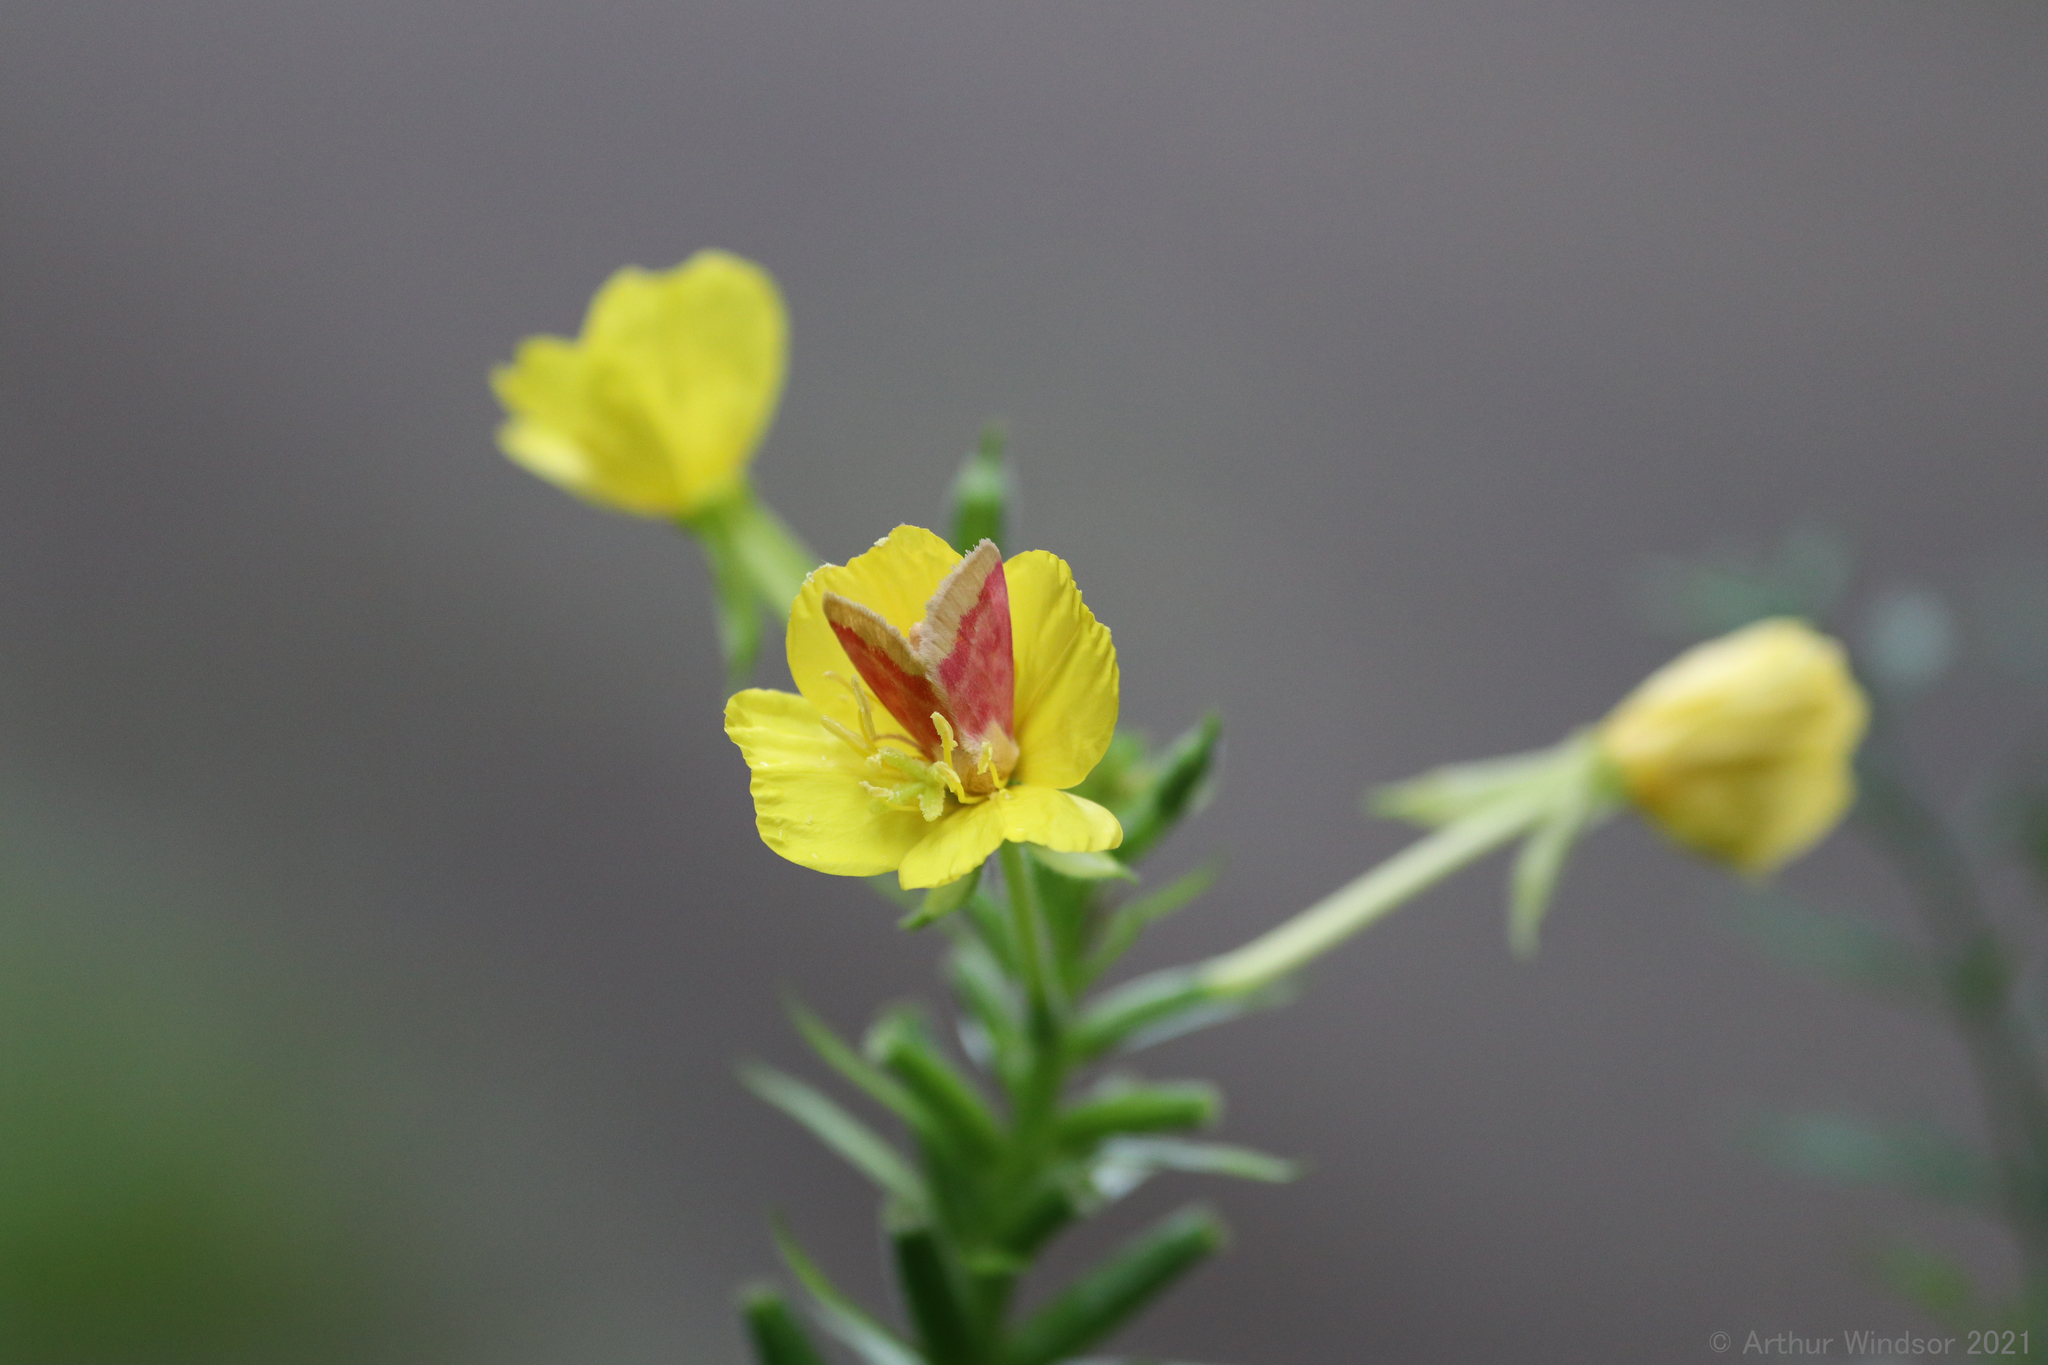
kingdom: Animalia
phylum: Arthropoda
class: Insecta
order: Lepidoptera
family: Noctuidae
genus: Schinia
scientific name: Schinia florida
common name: Primrose moth
